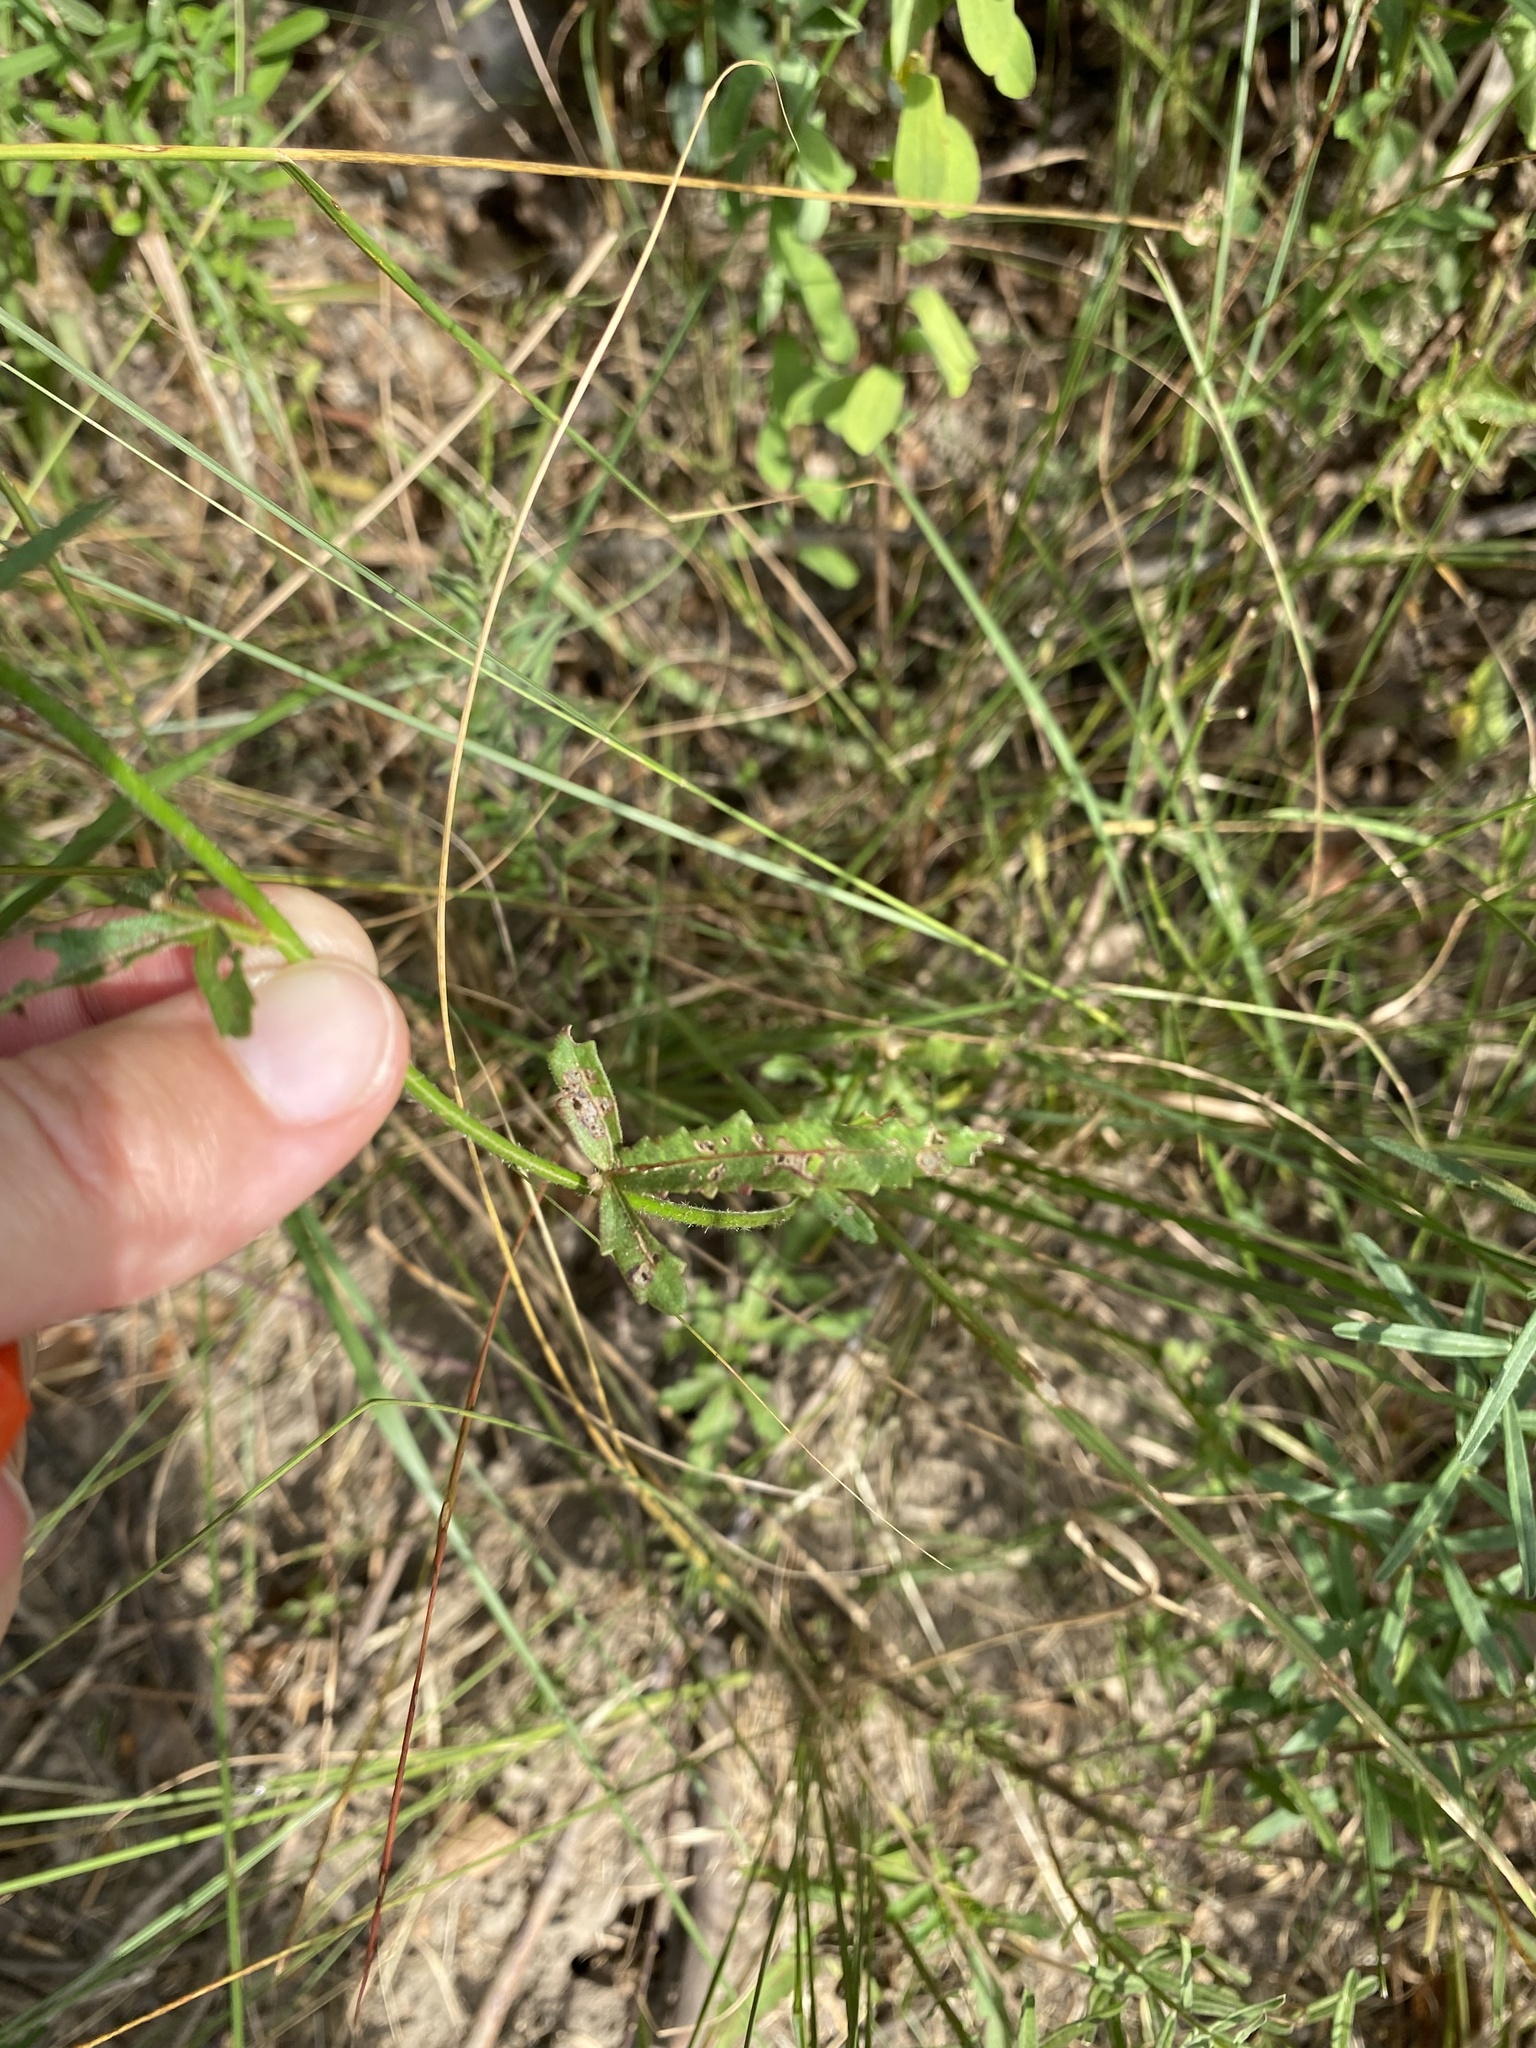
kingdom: Plantae
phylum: Tracheophyta
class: Magnoliopsida
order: Malvales
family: Malvaceae
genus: Hibiscus
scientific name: Hibiscus trionum
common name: Bladder ketmia
